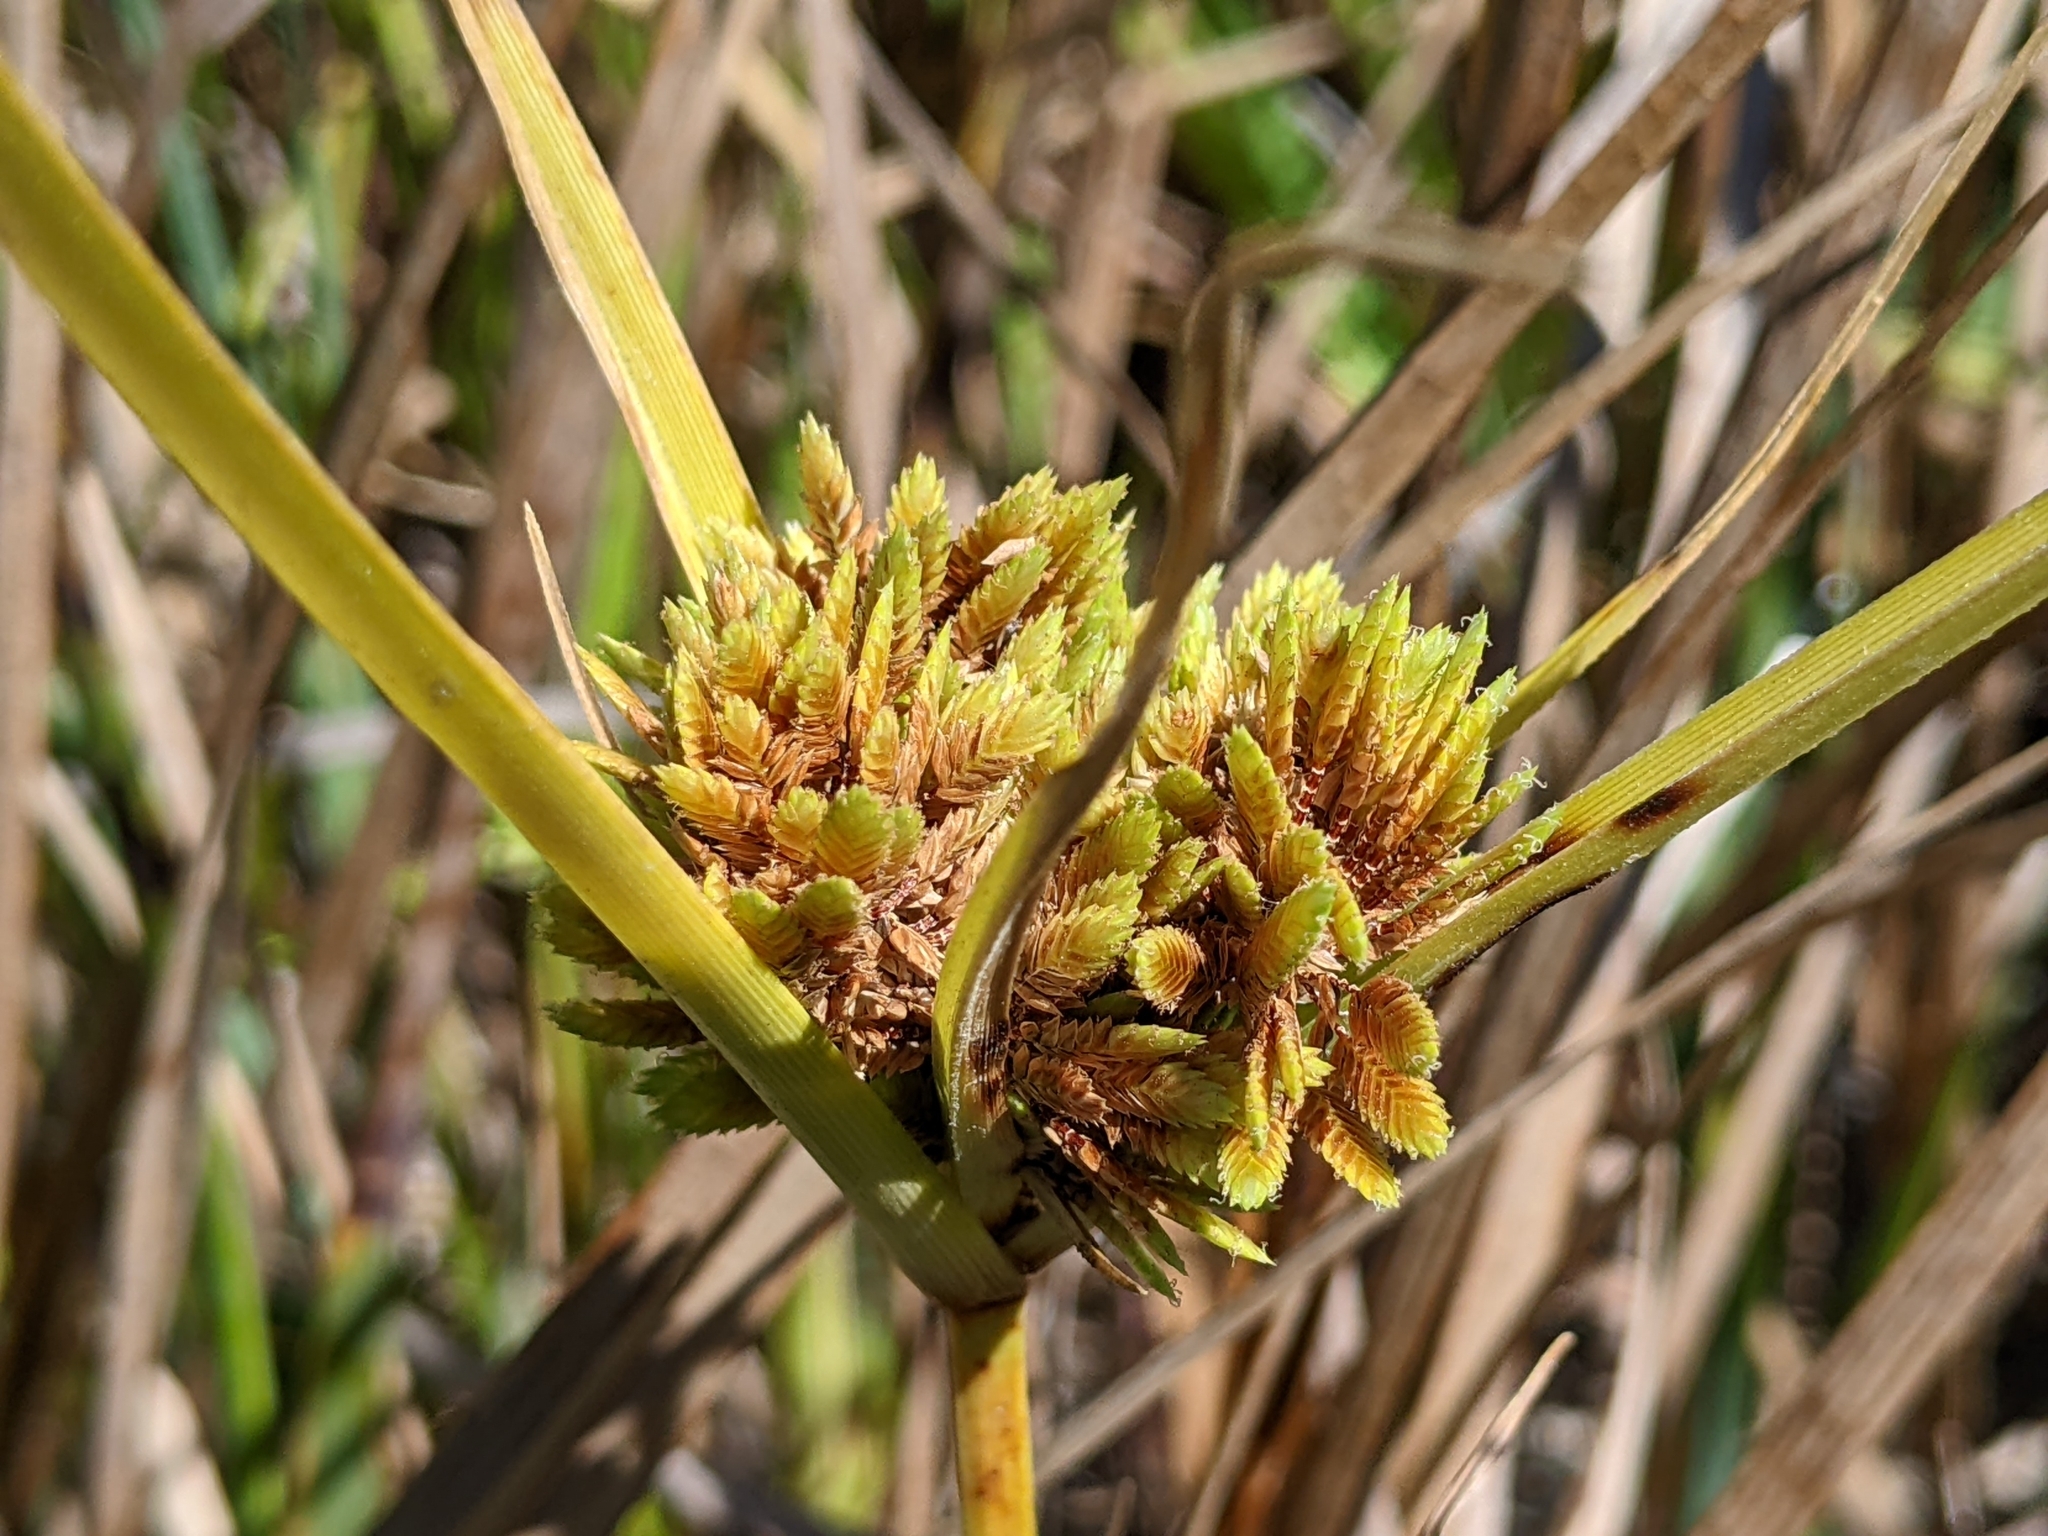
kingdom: Plantae
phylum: Tracheophyta
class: Liliopsida
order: Poales
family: Cyperaceae
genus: Cyperus
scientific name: Cyperus eragrostis
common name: Tall flatsedge
